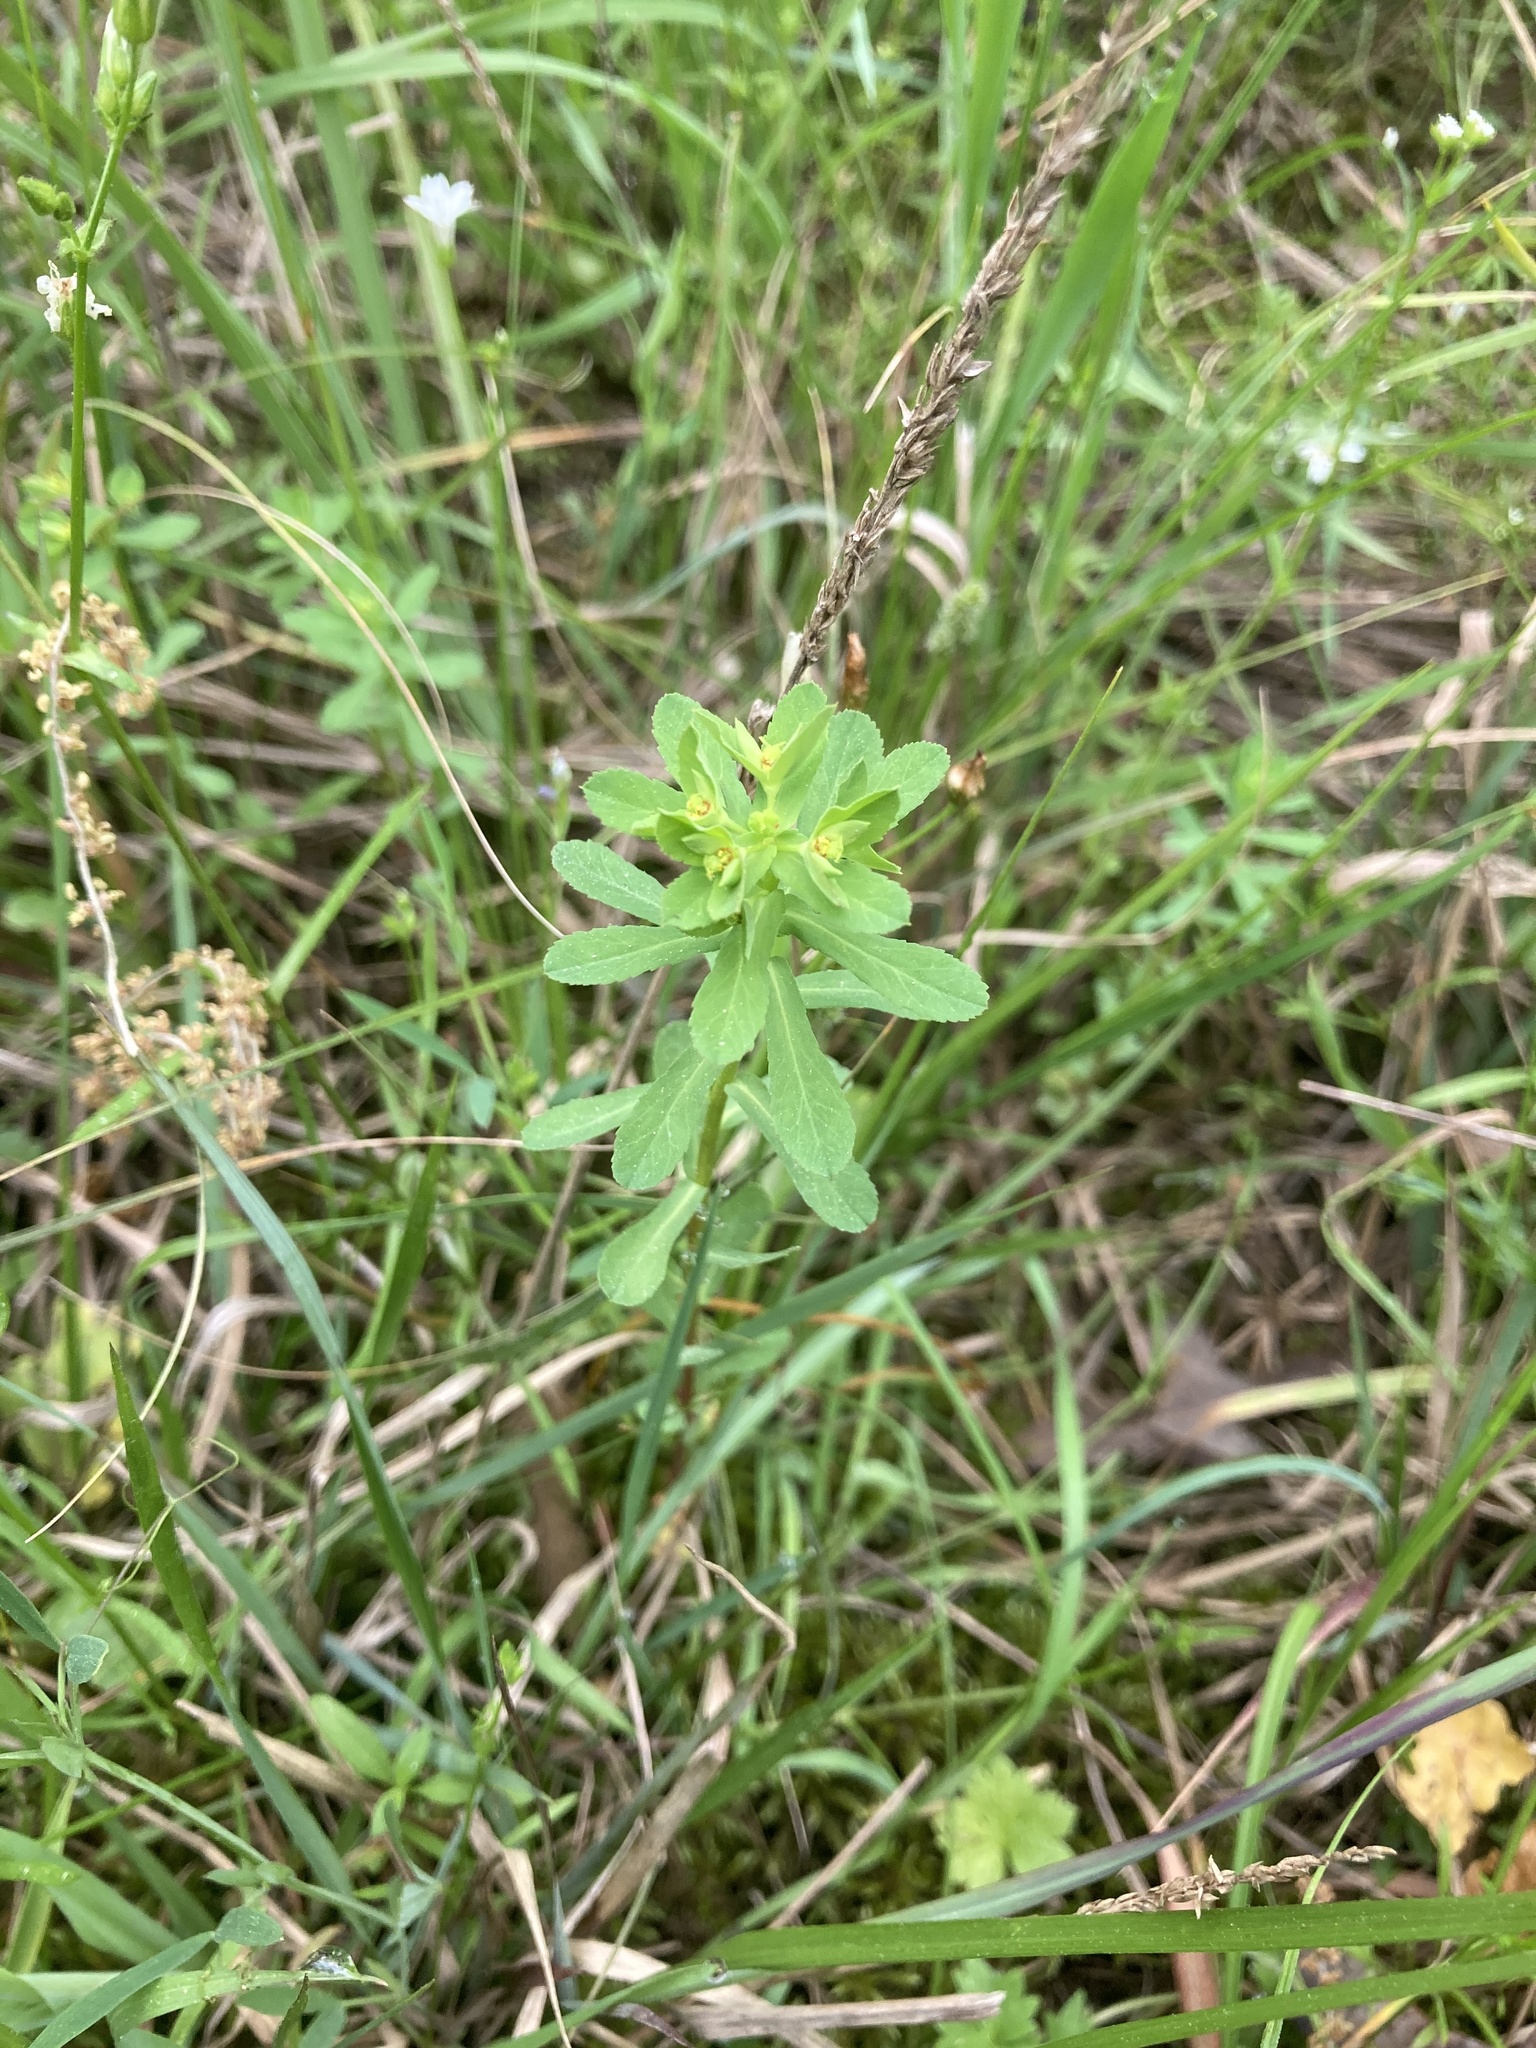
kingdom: Plantae
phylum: Tracheophyta
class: Magnoliopsida
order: Malpighiales
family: Euphorbiaceae
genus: Euphorbia
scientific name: Euphorbia spathulata
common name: Blunt spurge
